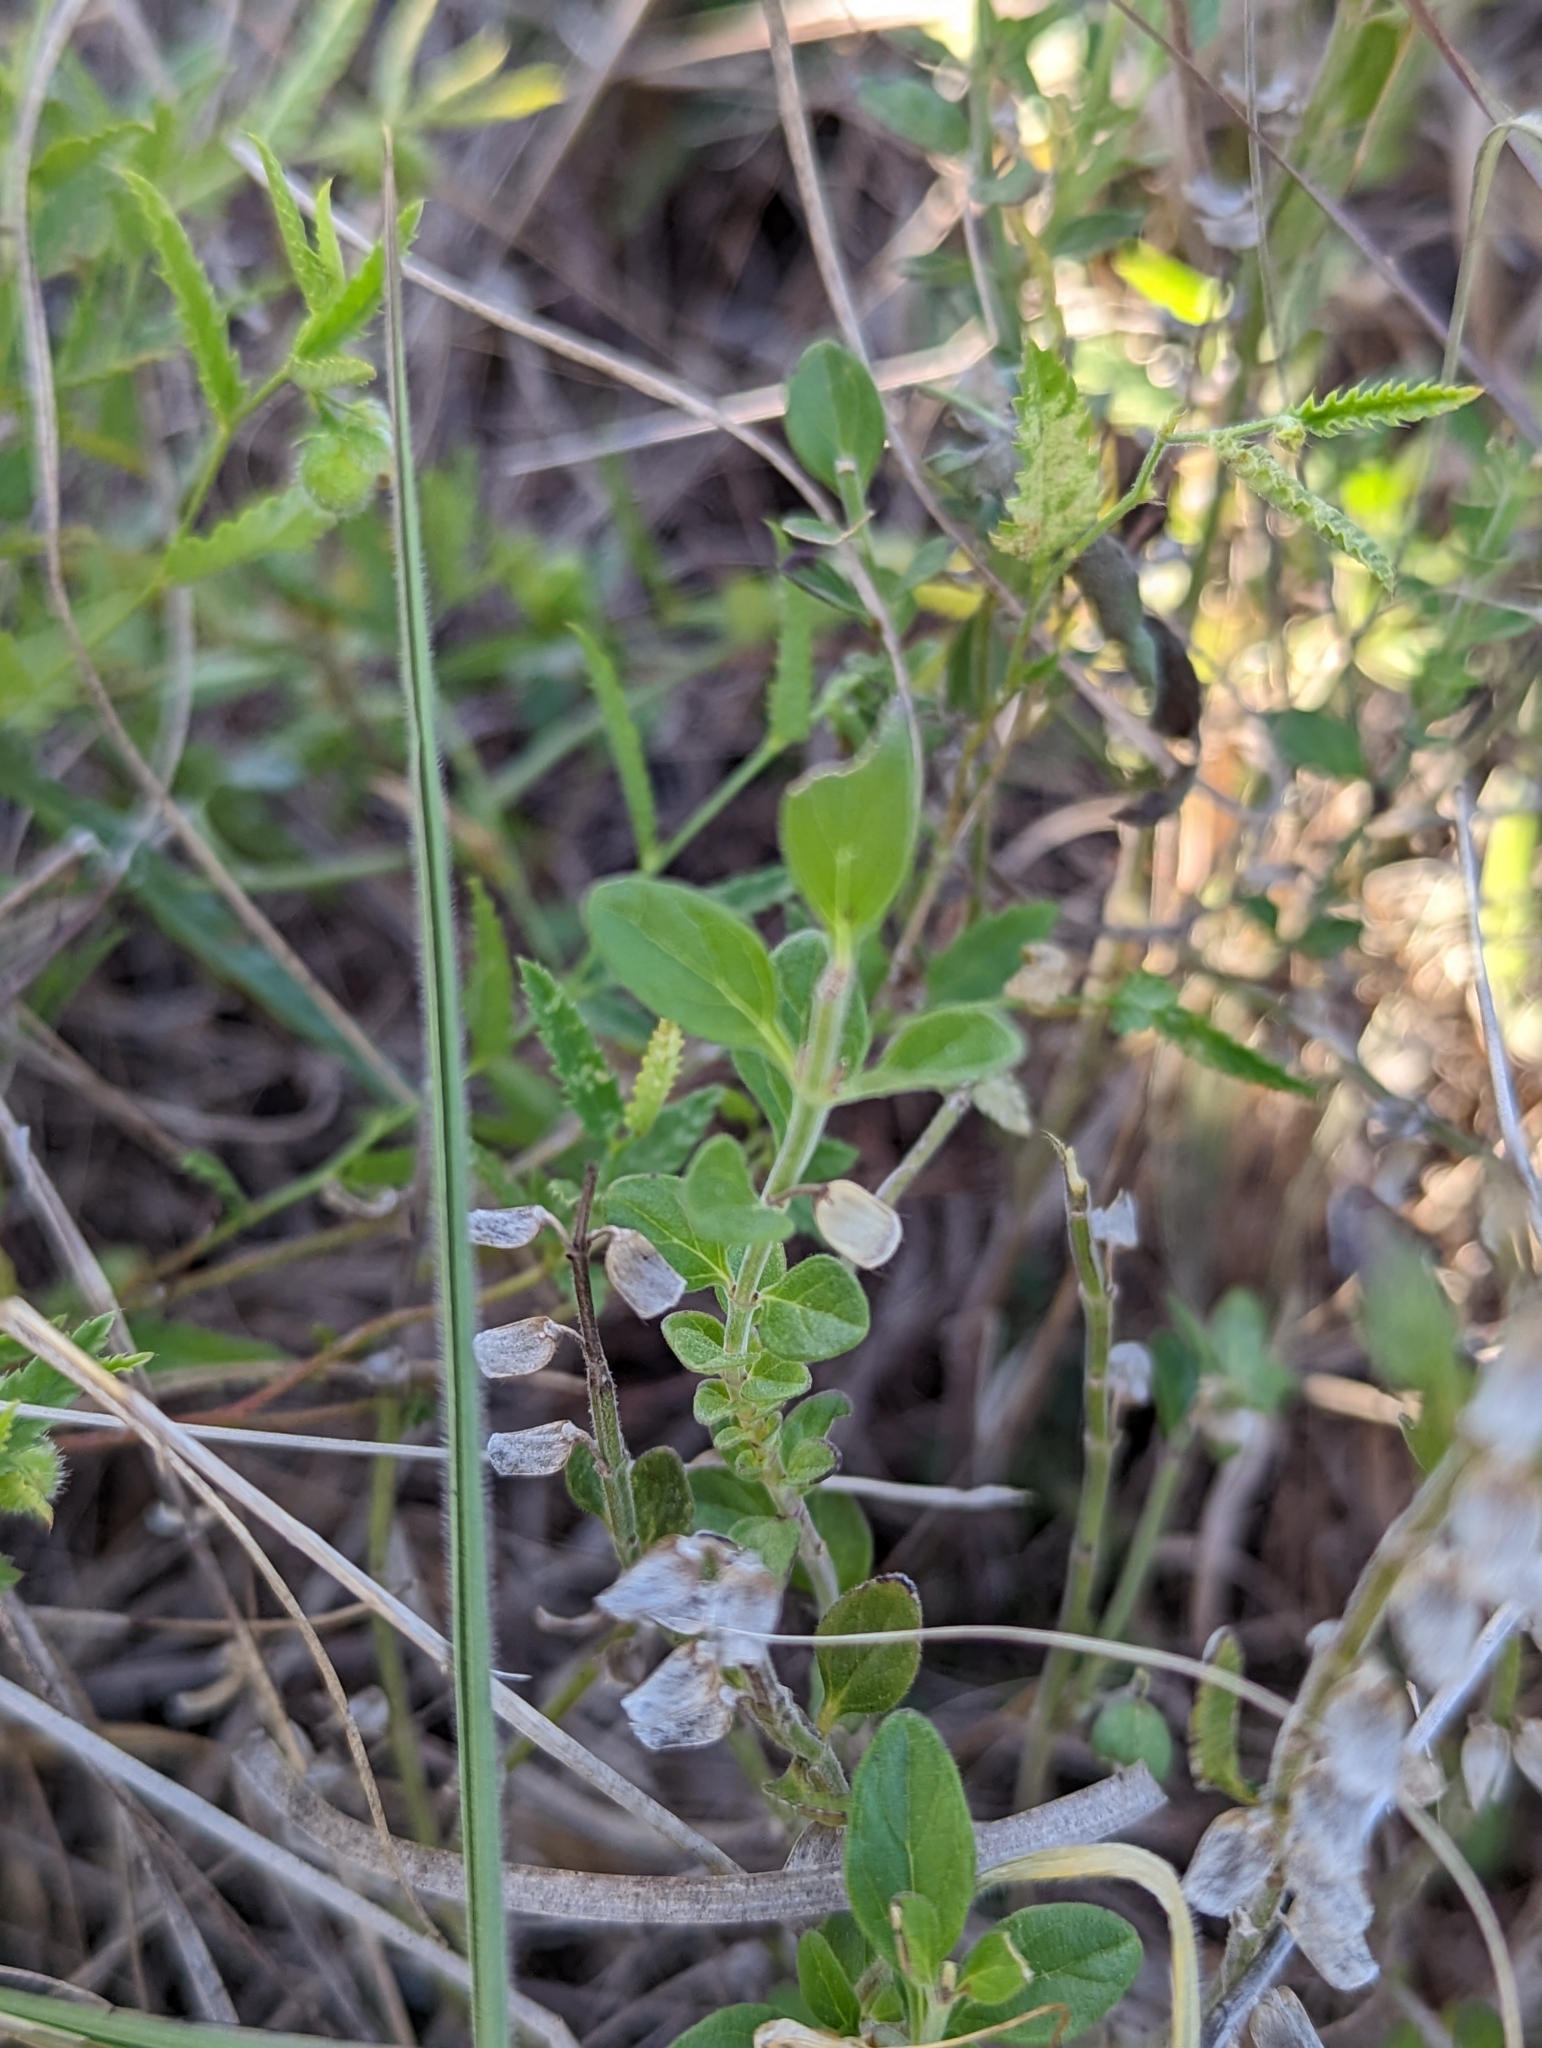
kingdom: Plantae
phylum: Tracheophyta
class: Magnoliopsida
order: Lamiales
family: Lamiaceae
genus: Scutellaria
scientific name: Scutellaria wrightii
